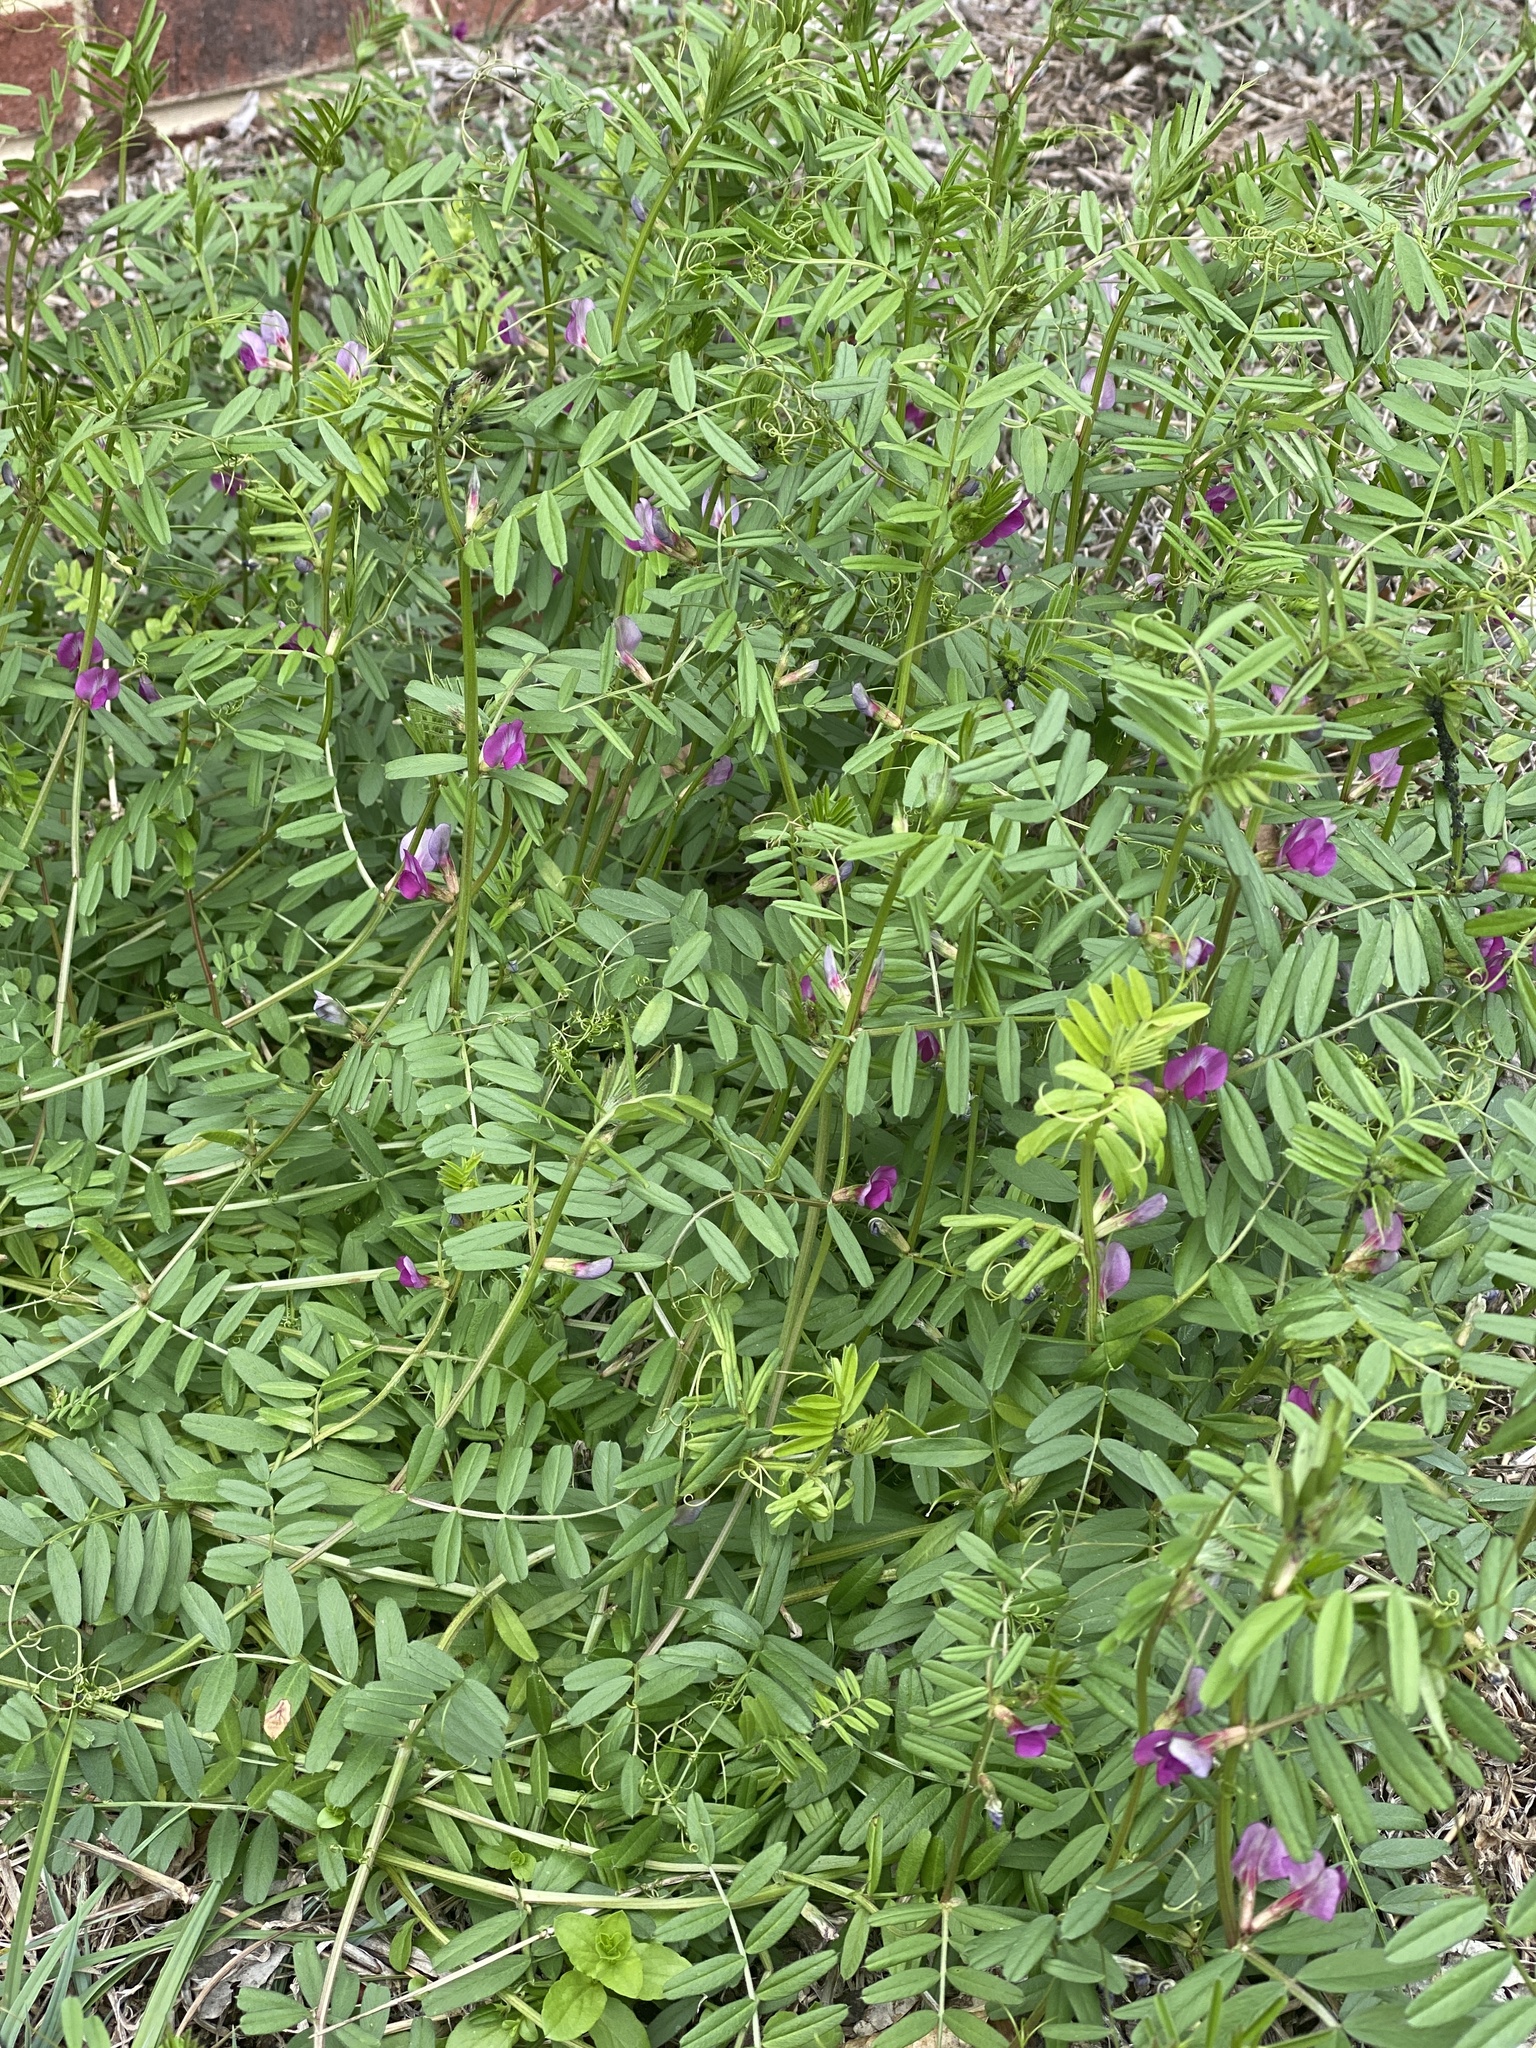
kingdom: Plantae
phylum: Tracheophyta
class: Magnoliopsida
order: Fabales
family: Fabaceae
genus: Vicia
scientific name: Vicia sativa
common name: Garden vetch
